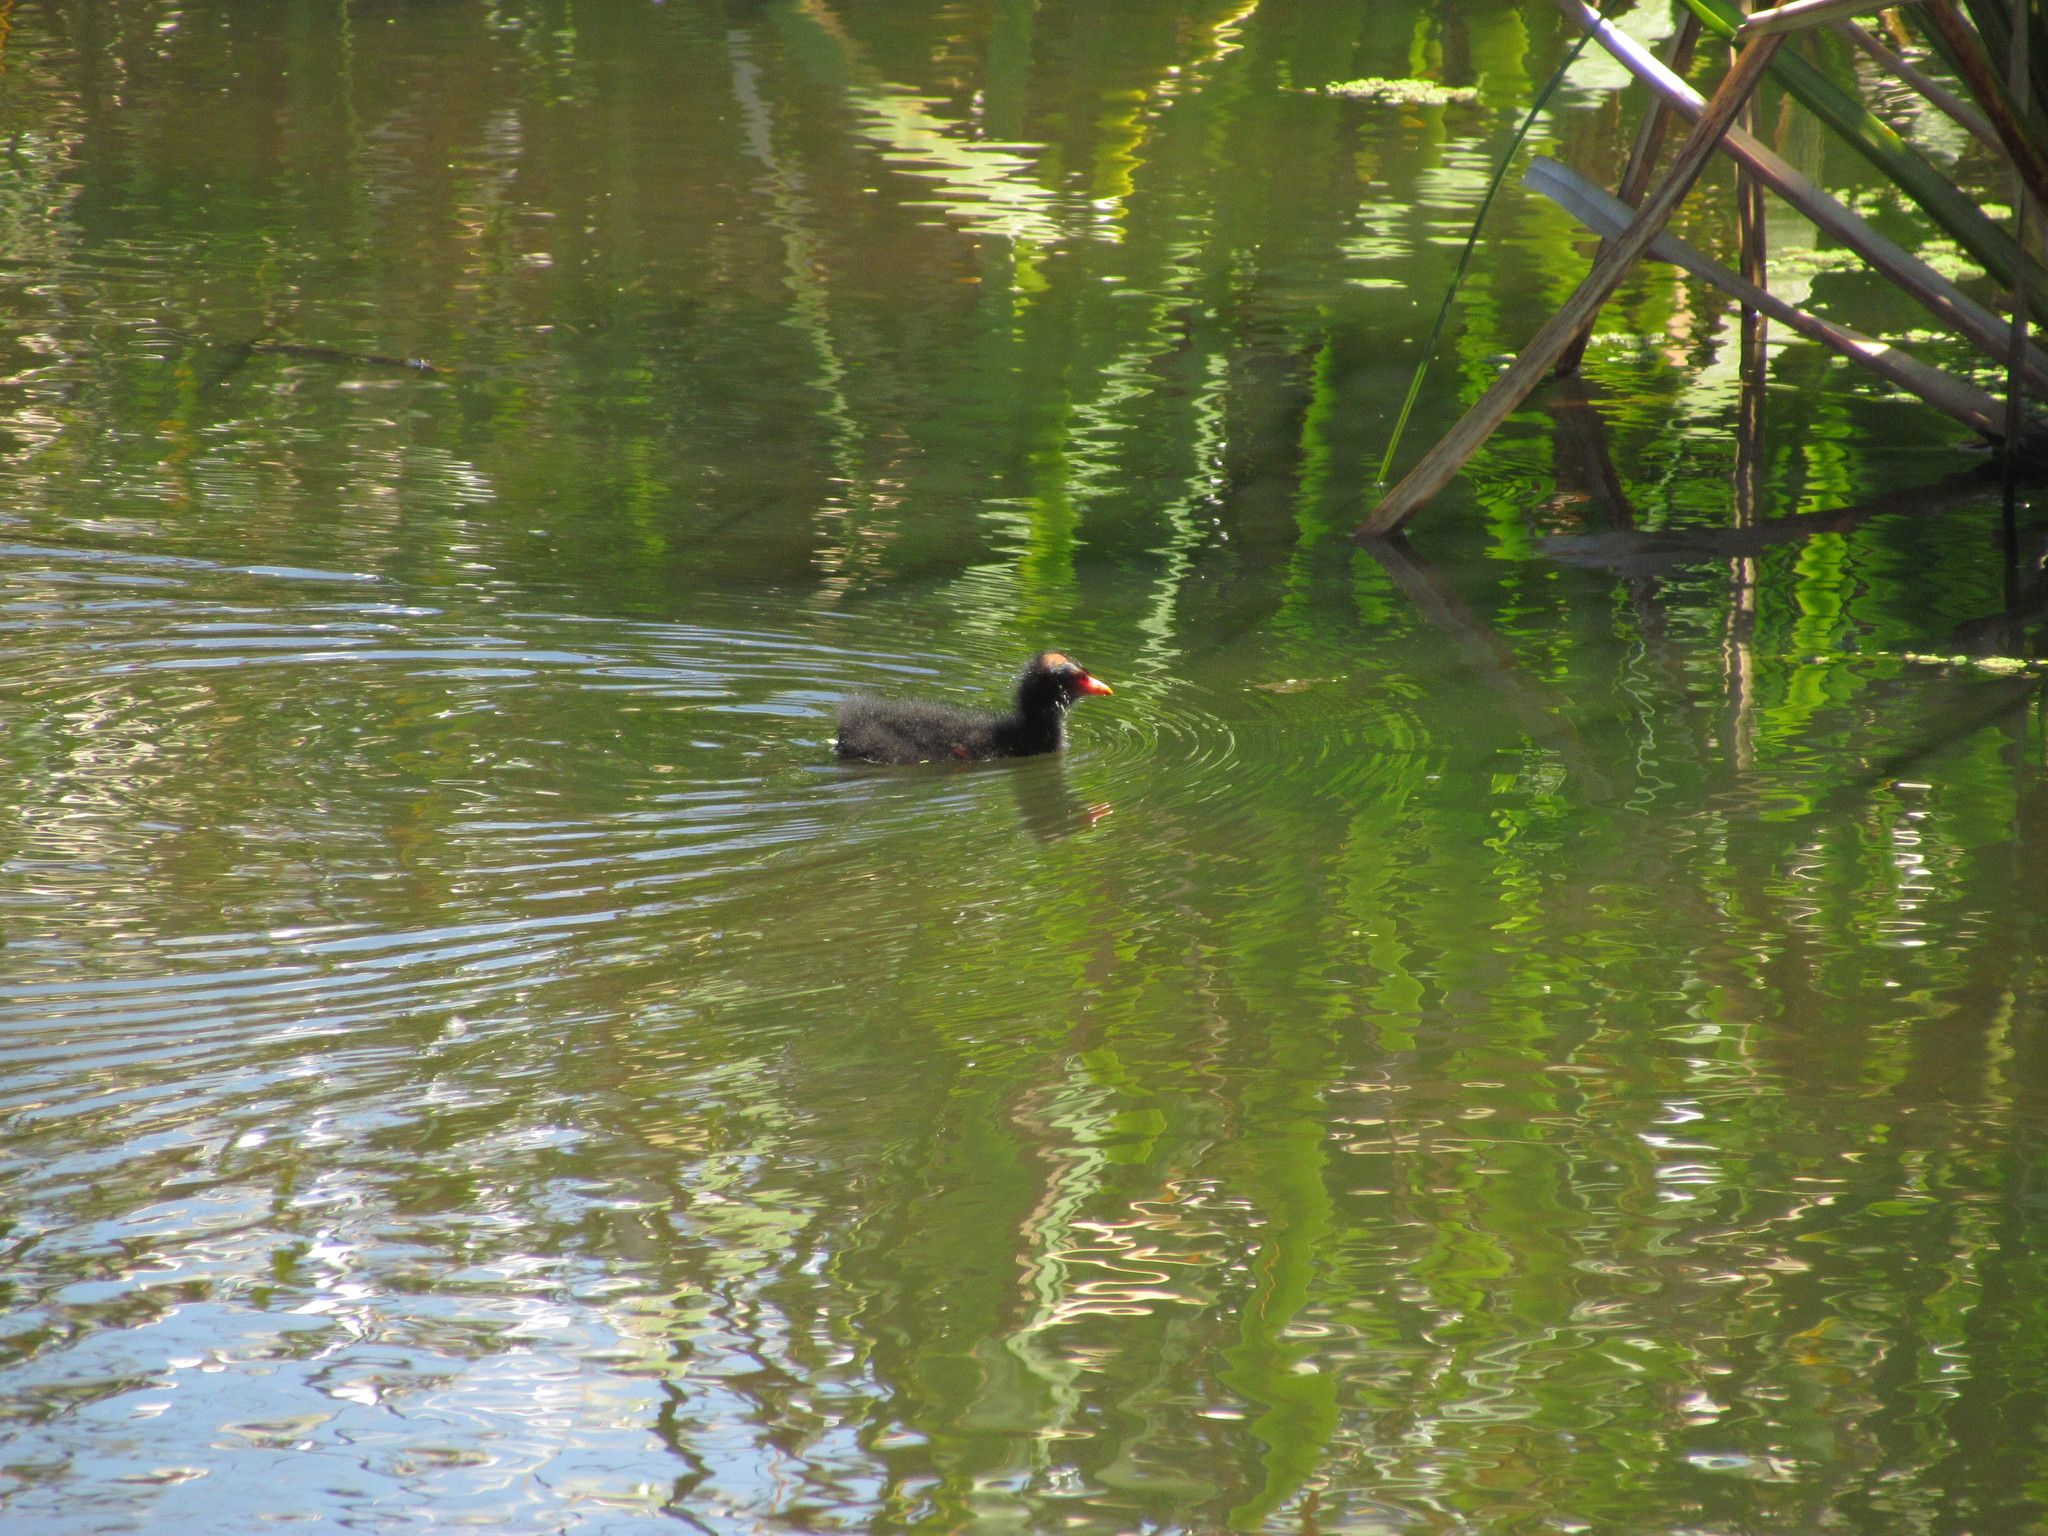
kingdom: Animalia
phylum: Chordata
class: Aves
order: Gruiformes
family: Rallidae
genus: Gallinula
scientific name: Gallinula chloropus
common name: Common moorhen
